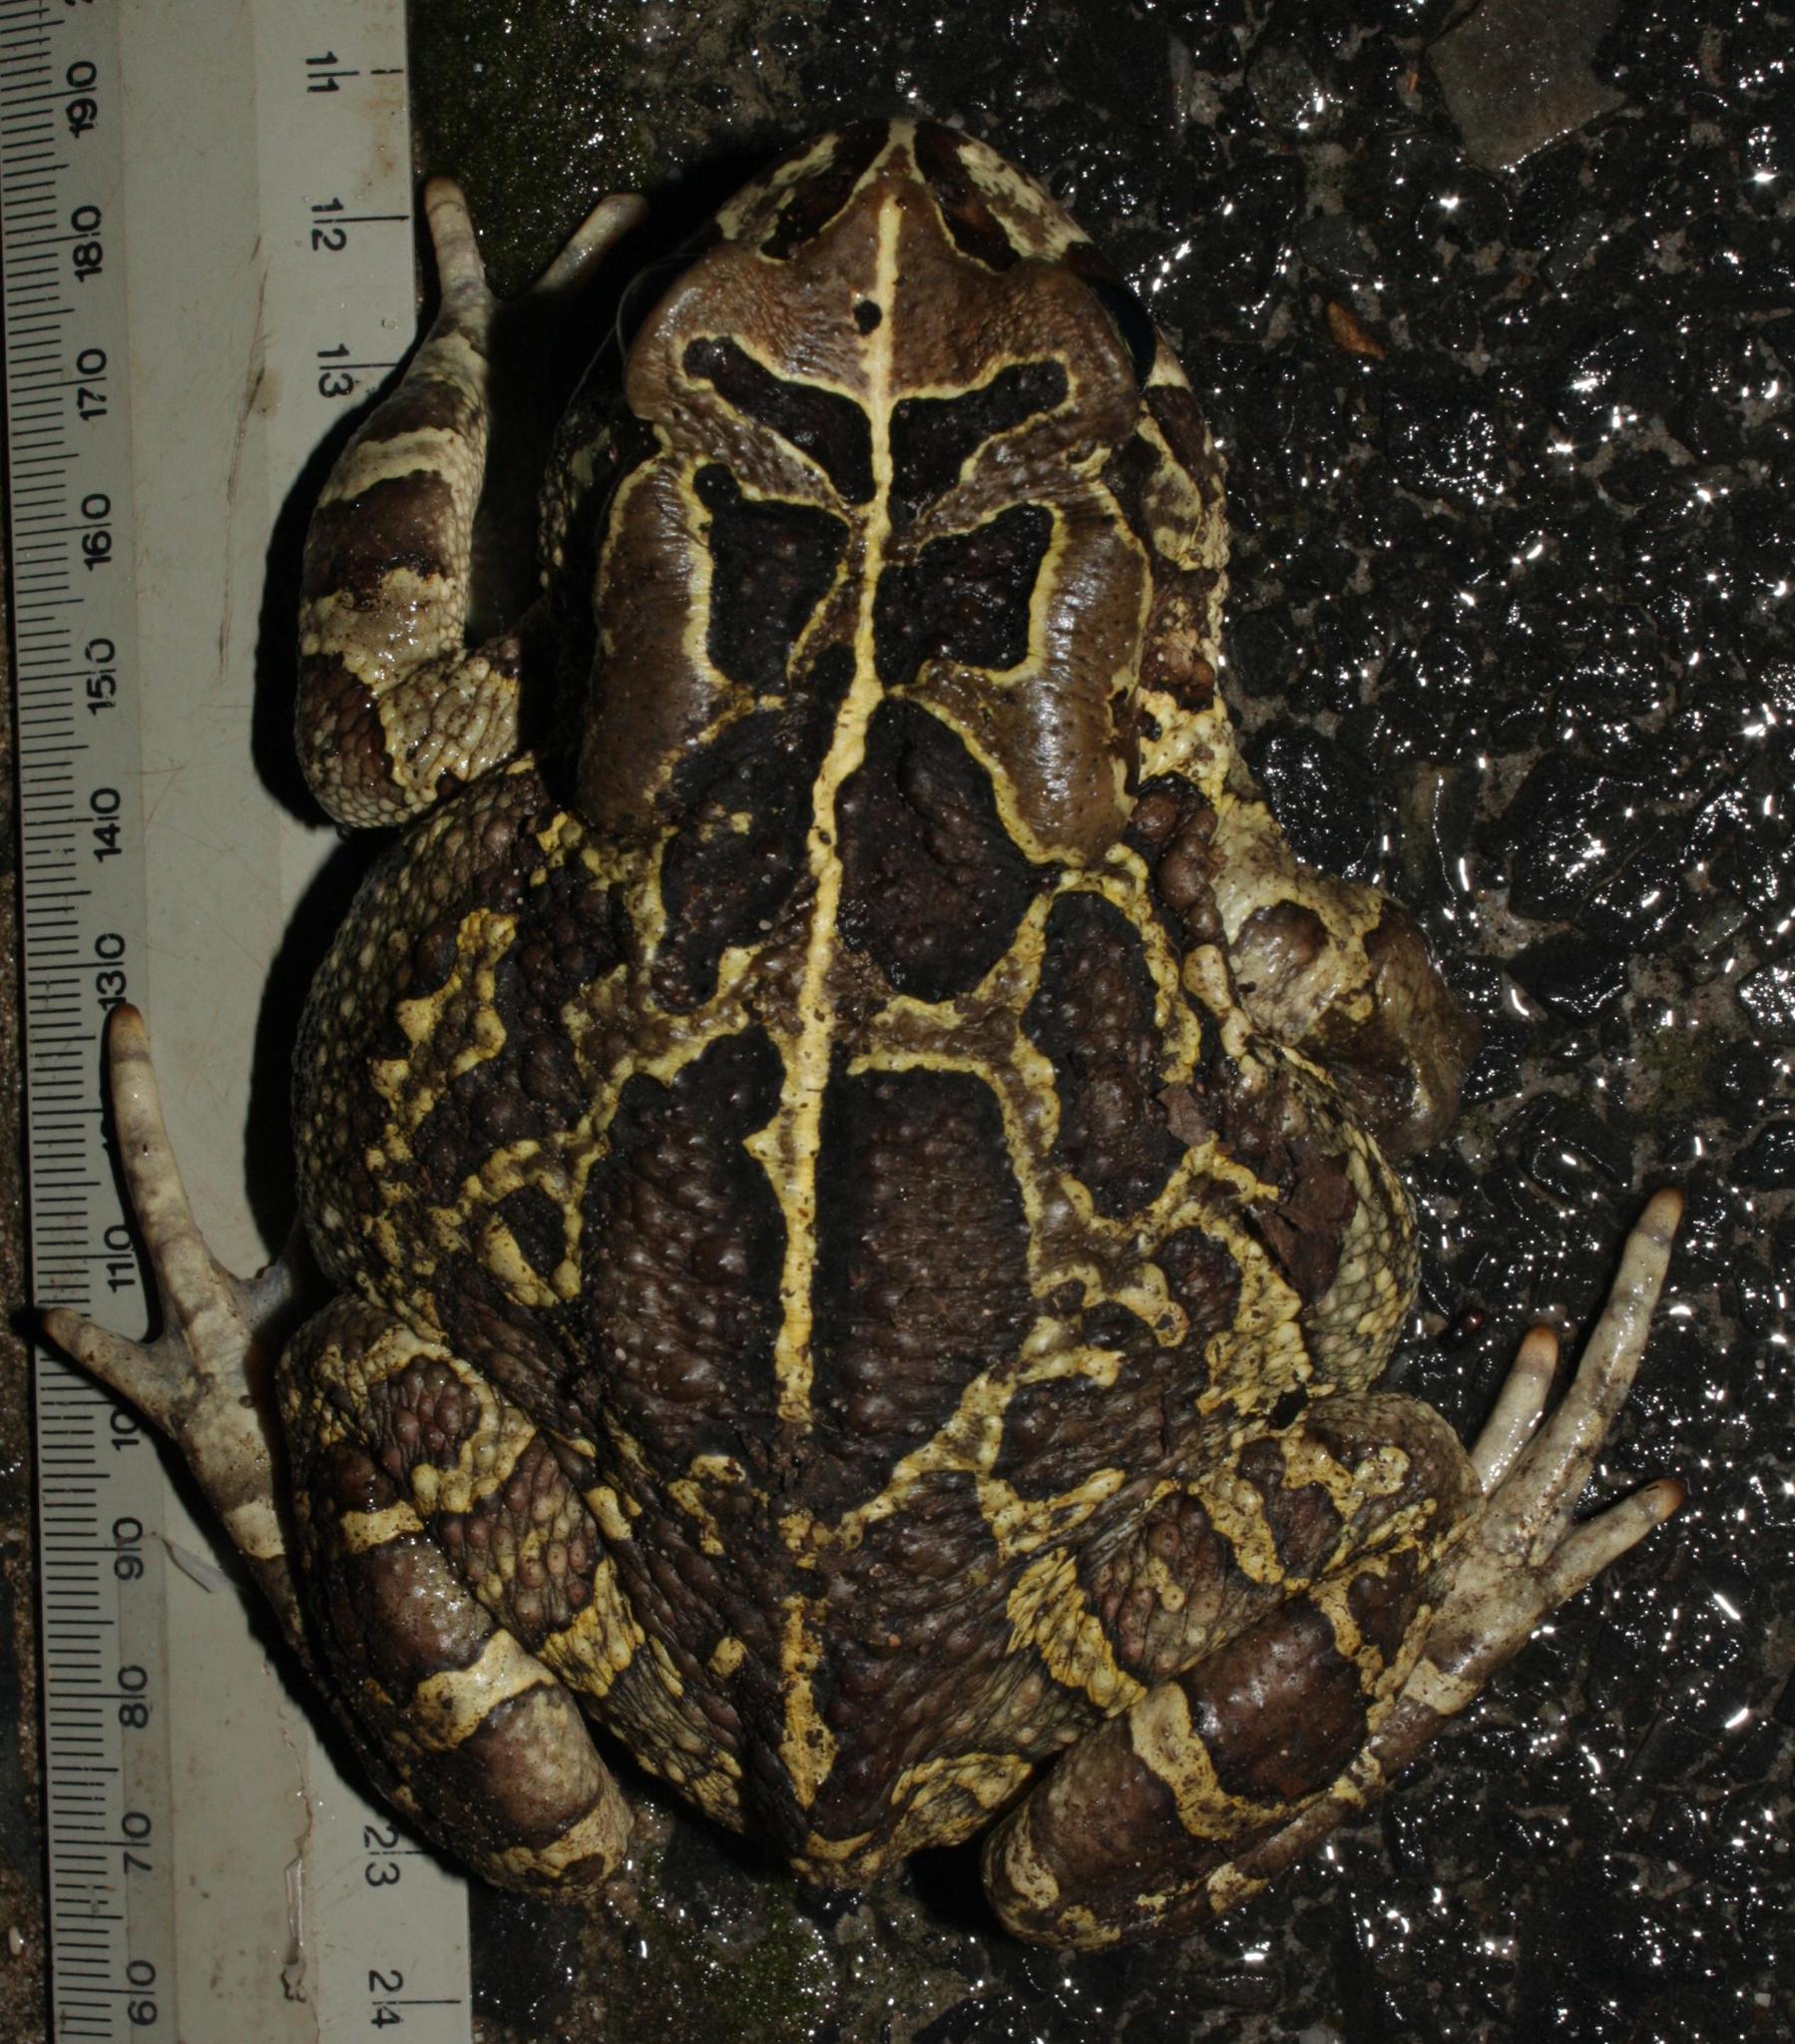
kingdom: Animalia
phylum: Chordata
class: Amphibia
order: Anura
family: Bufonidae
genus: Sclerophrys
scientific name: Sclerophrys pantherina
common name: Panther toad
